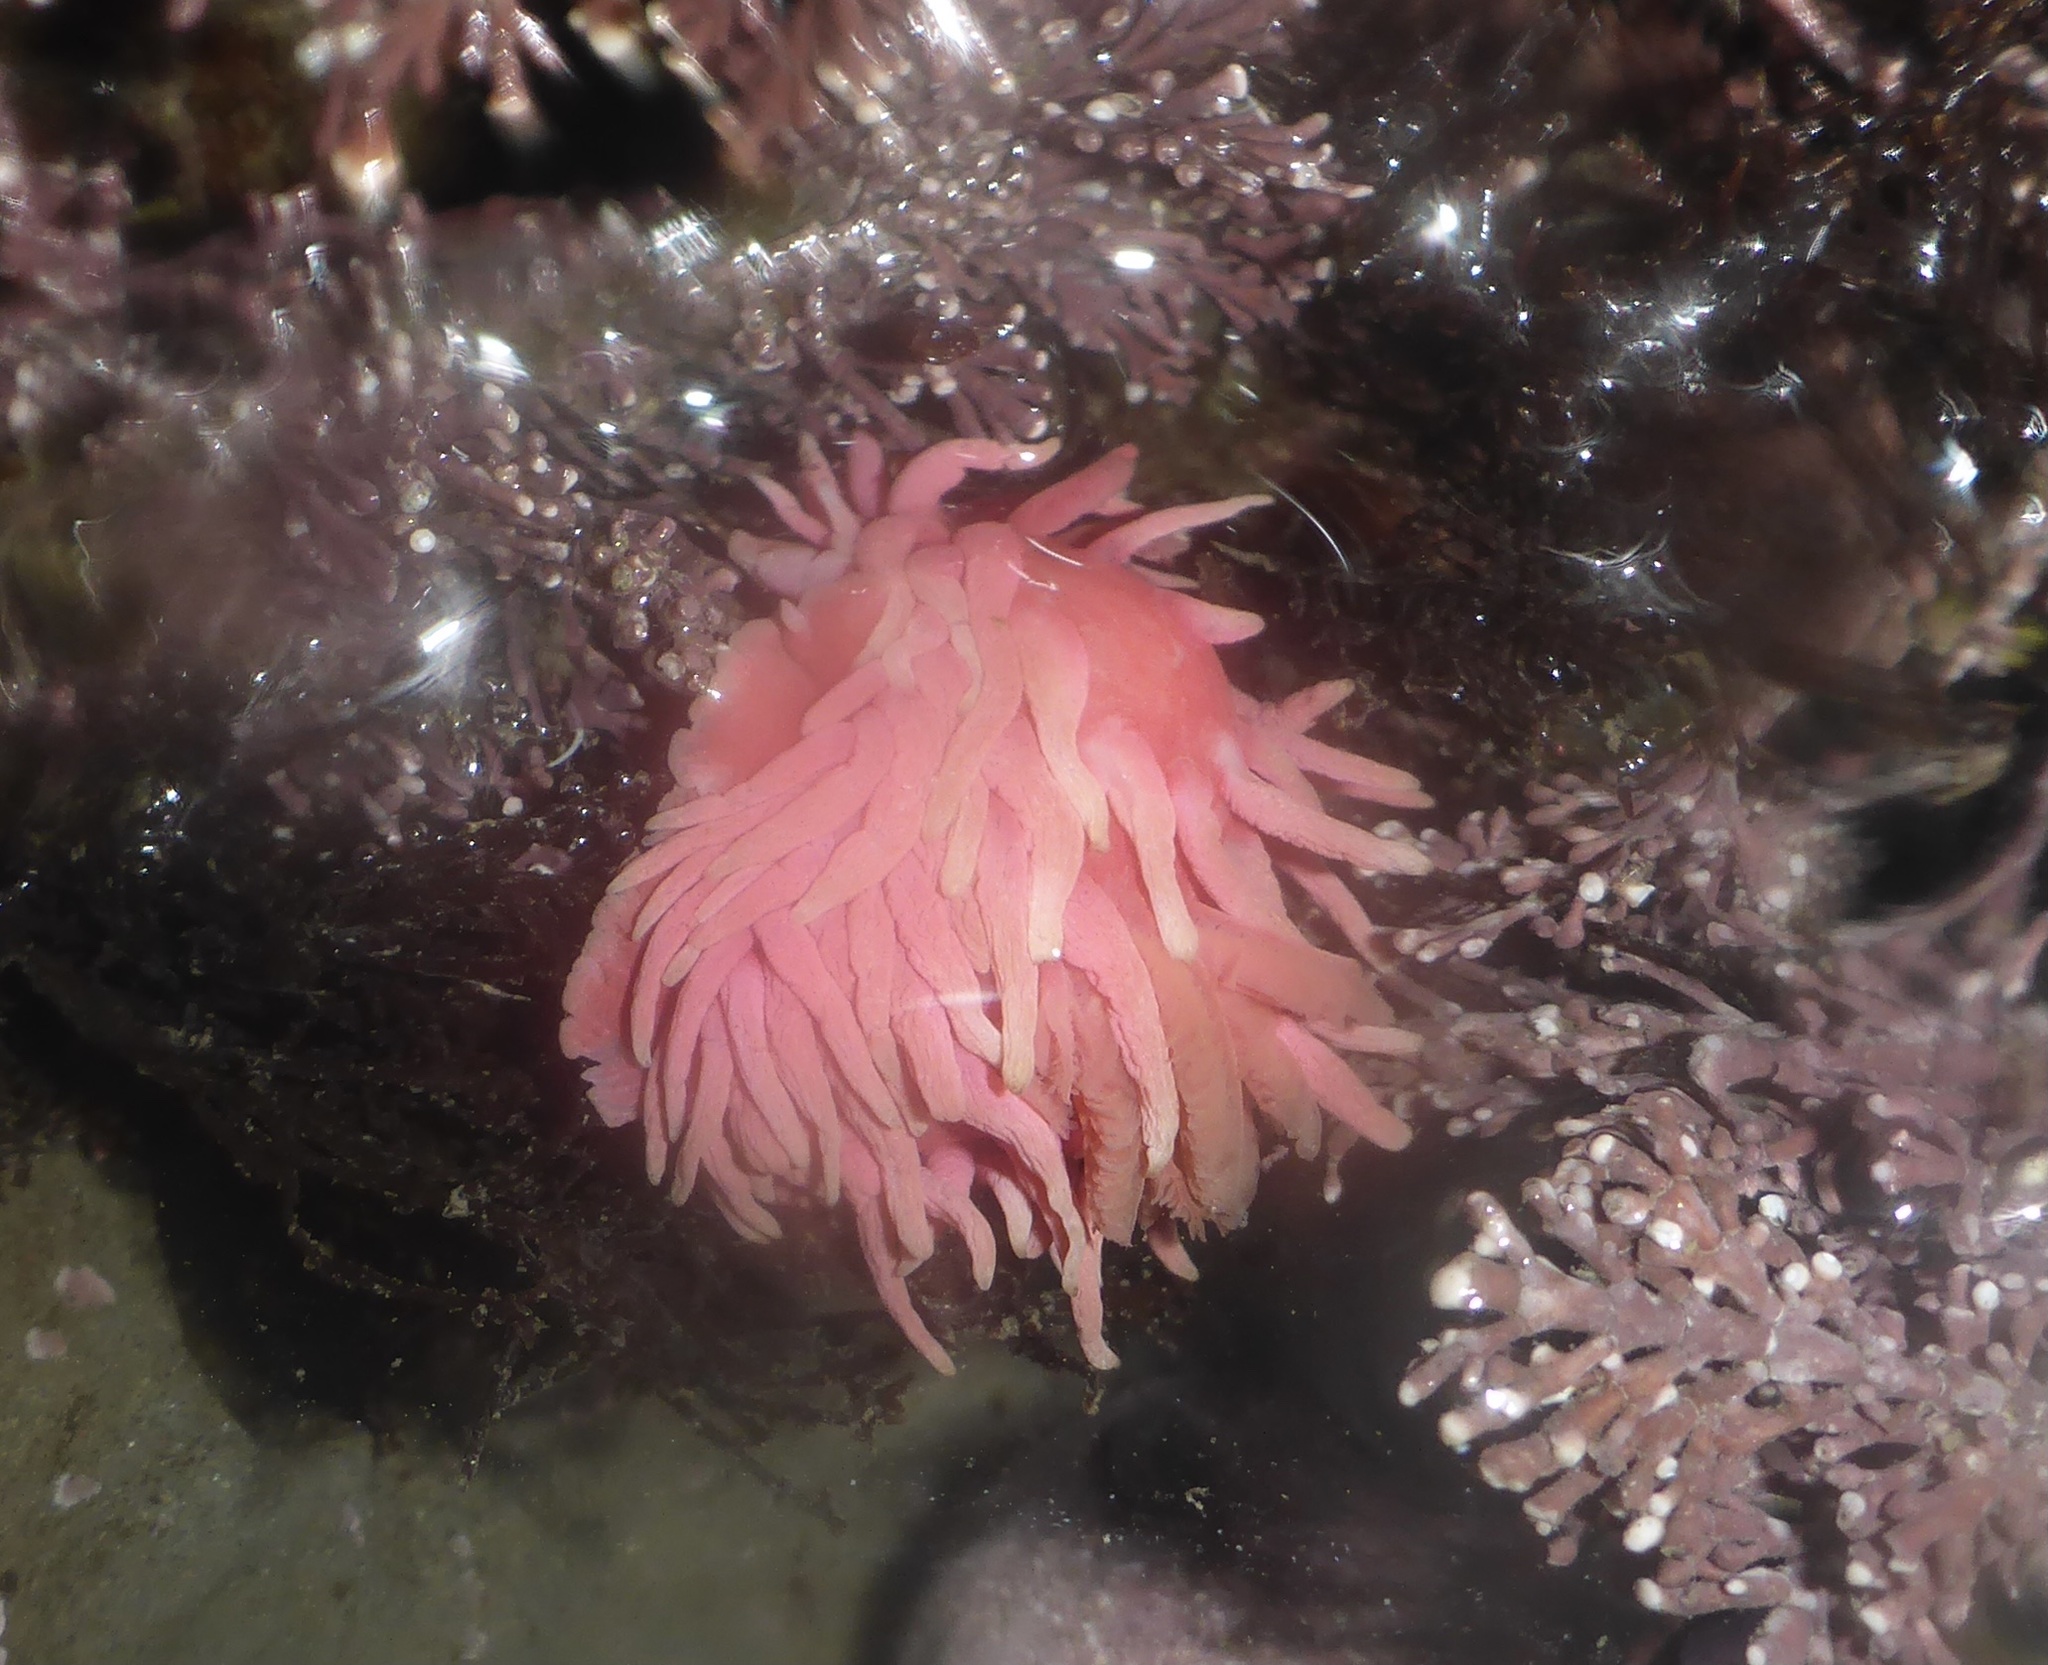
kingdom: Animalia
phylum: Mollusca
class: Gastropoda
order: Nudibranchia
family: Goniodorididae
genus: Okenia
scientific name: Okenia
